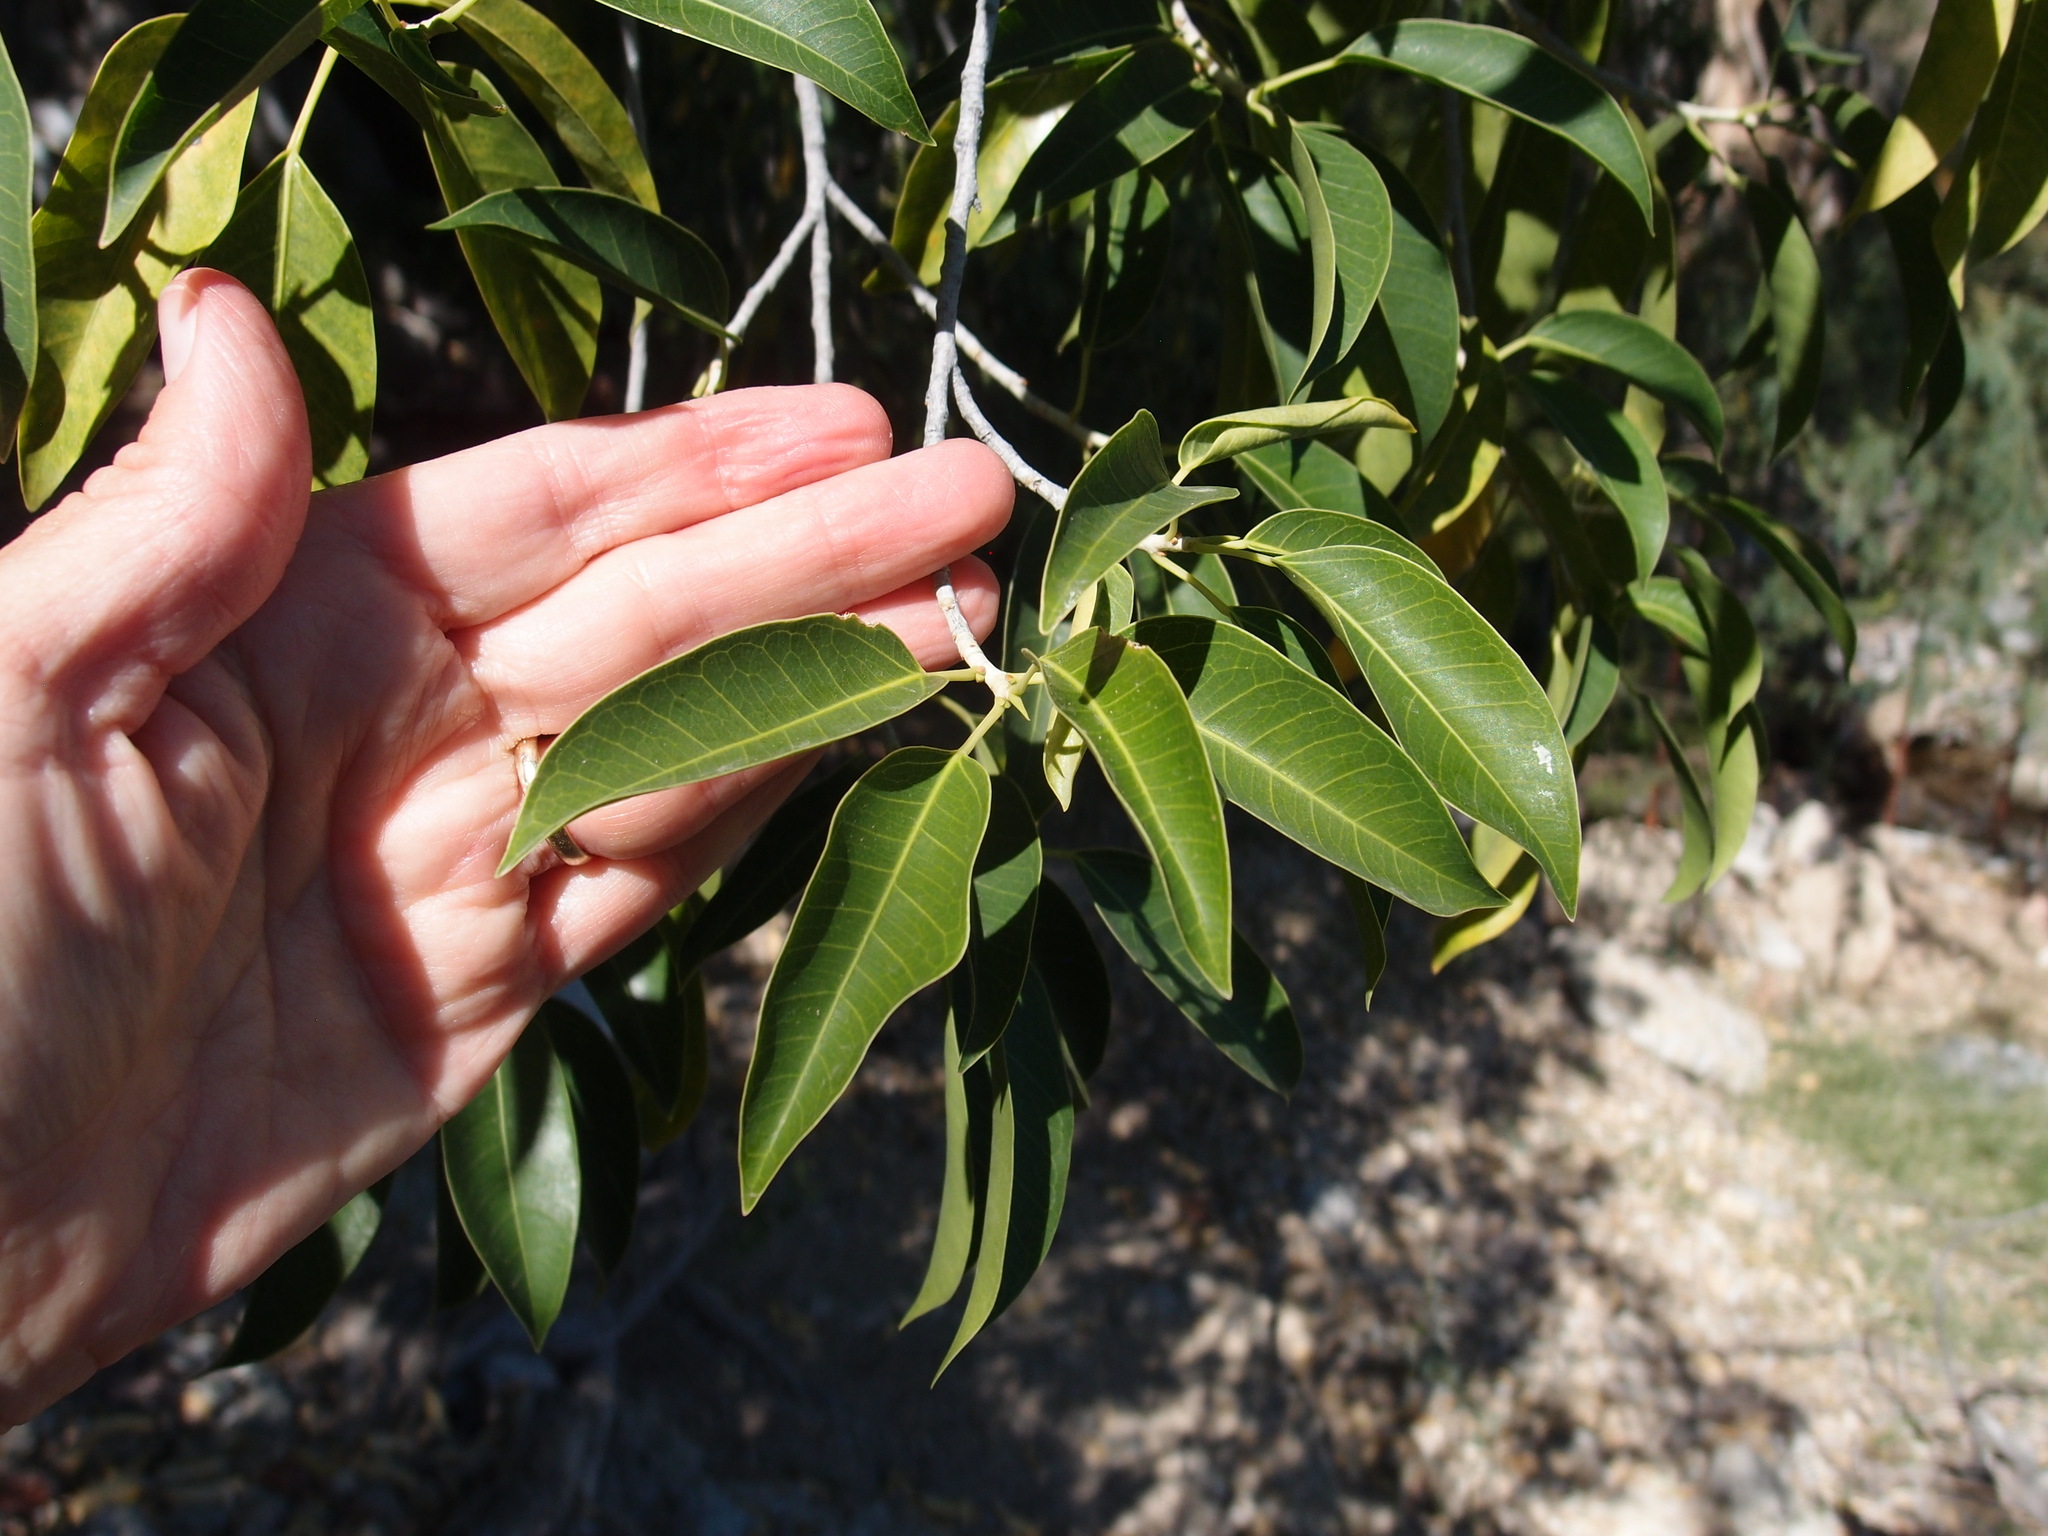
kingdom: Plantae
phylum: Tracheophyta
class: Magnoliopsida
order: Rosales
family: Moraceae
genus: Ficus
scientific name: Ficus pertusa
